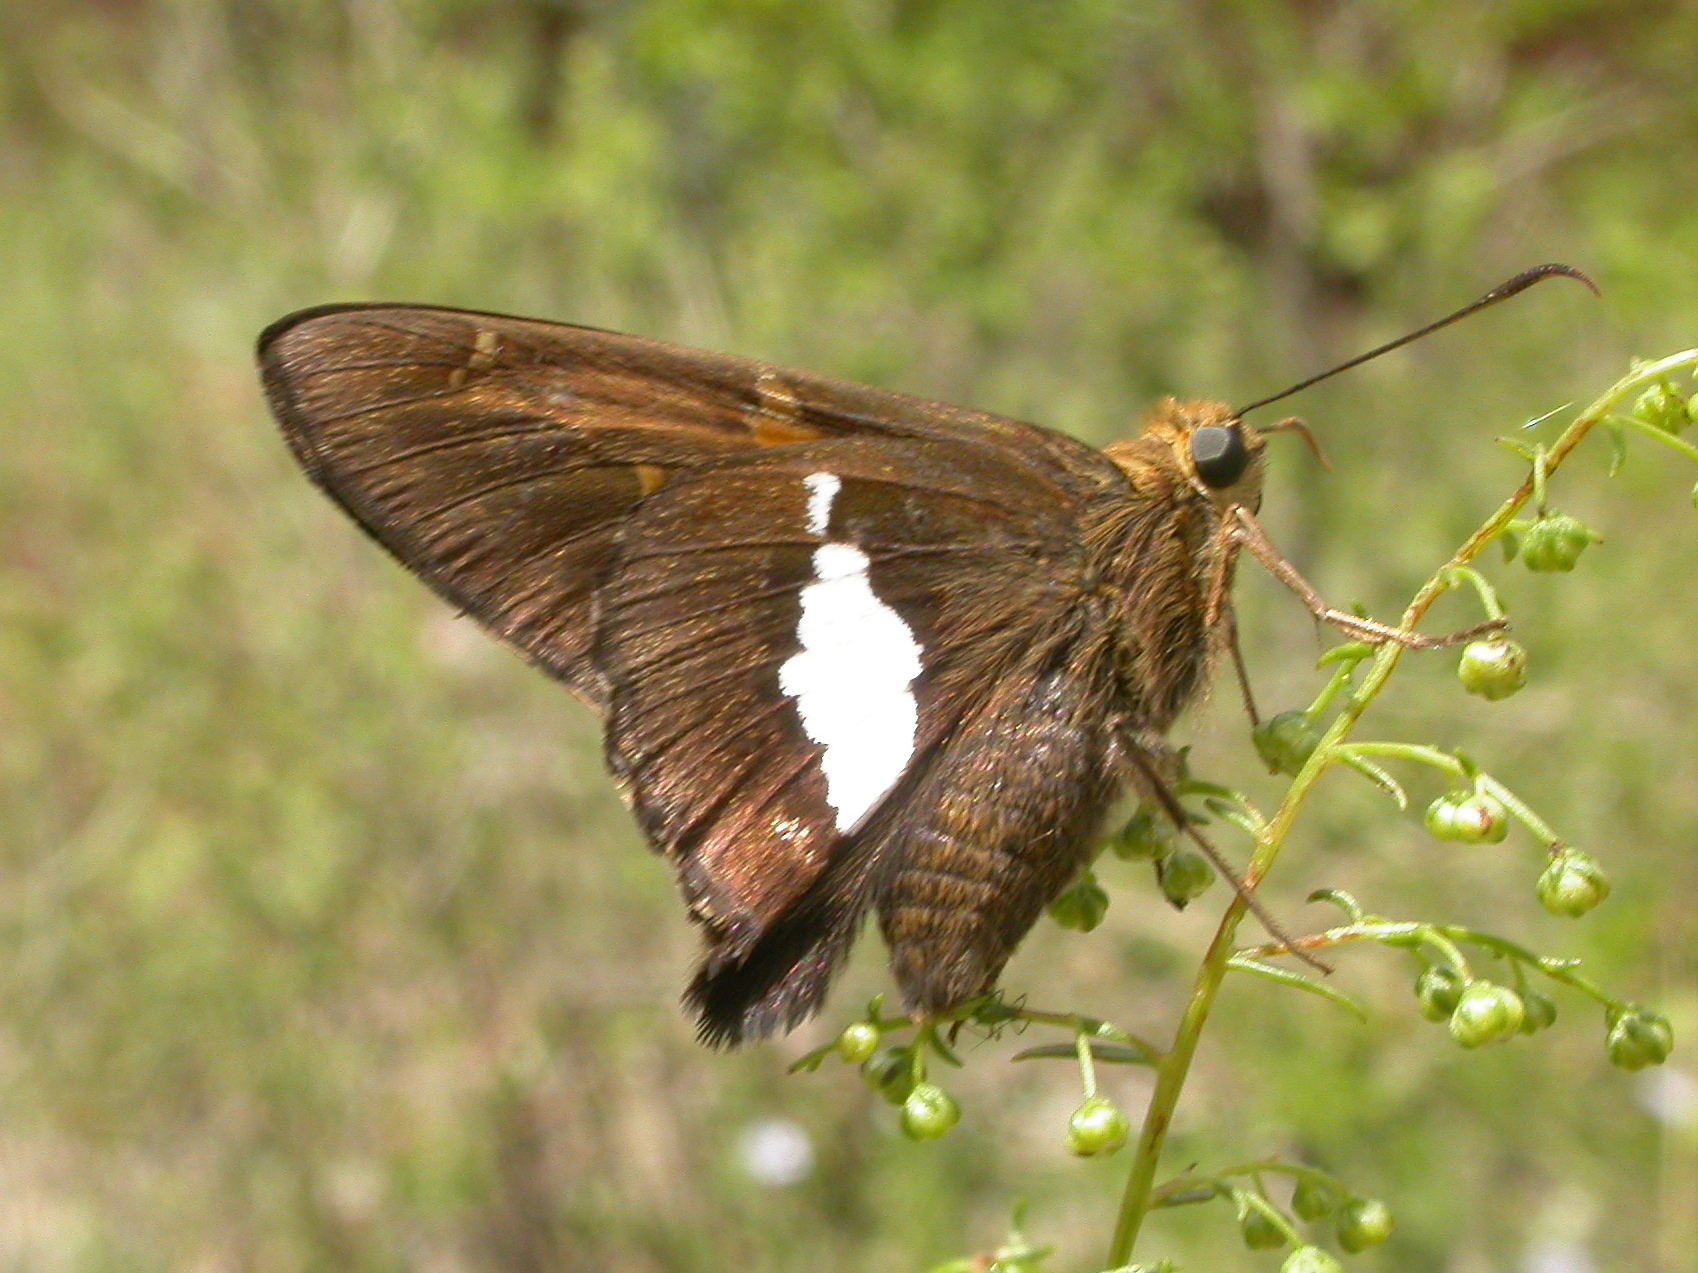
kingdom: Animalia
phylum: Arthropoda
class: Insecta
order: Lepidoptera
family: Hesperiidae
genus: Epargyreus
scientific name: Epargyreus clarus
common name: Silver-spotted skipper
